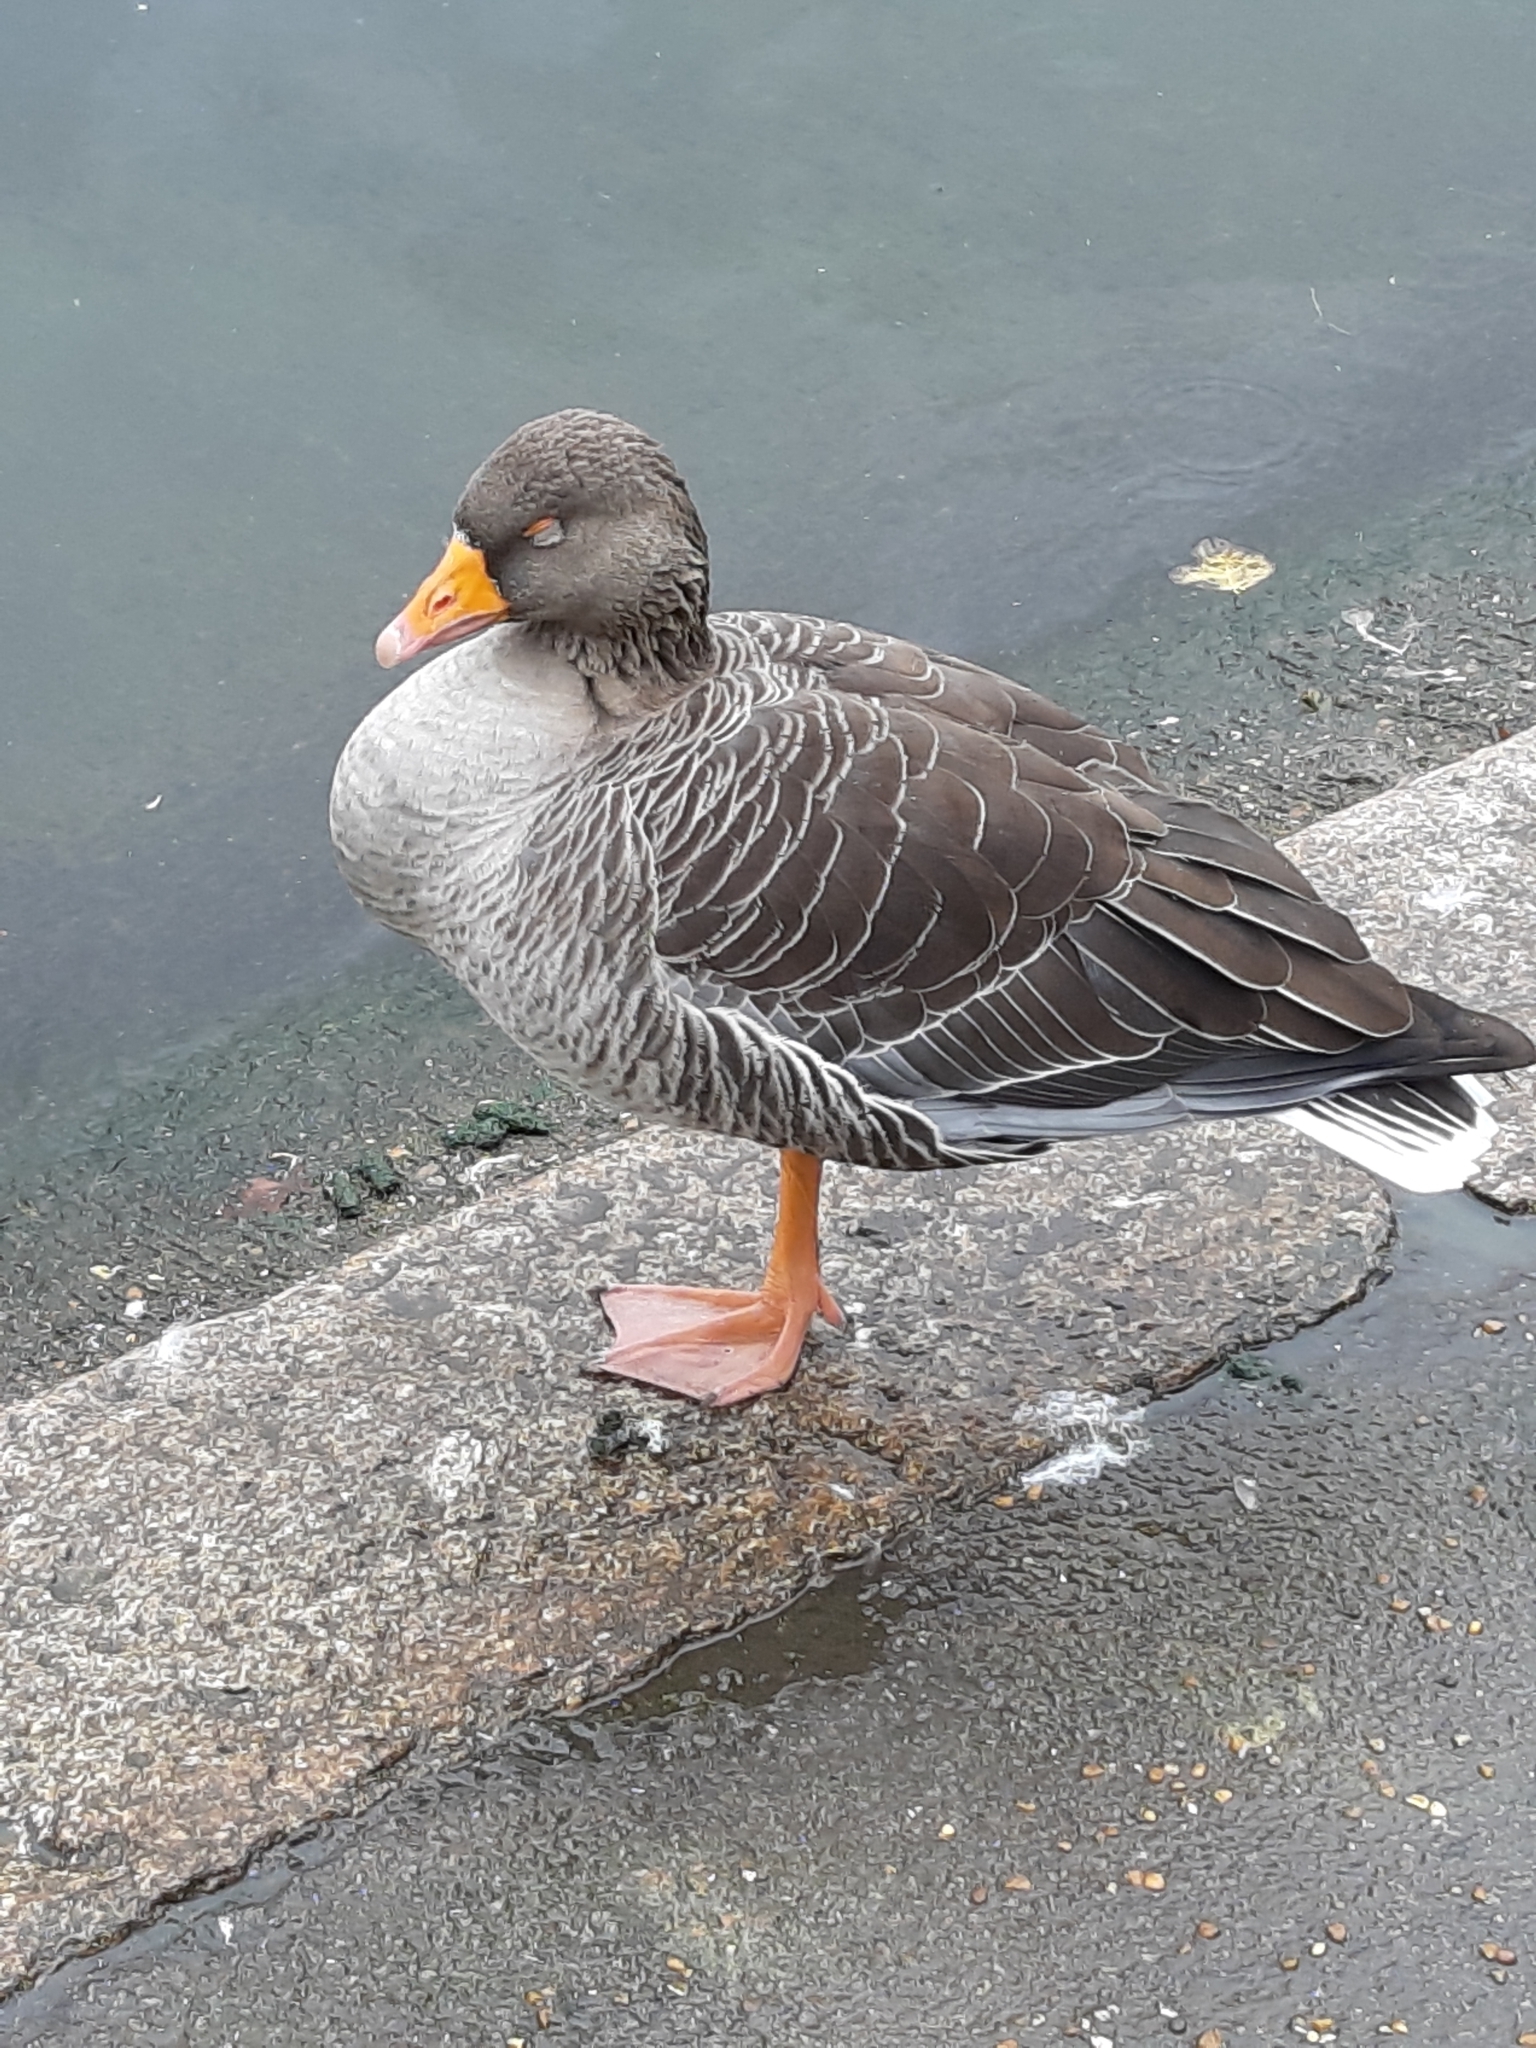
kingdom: Animalia
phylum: Chordata
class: Aves
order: Anseriformes
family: Anatidae
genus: Anser
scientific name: Anser anser
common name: Greylag goose
